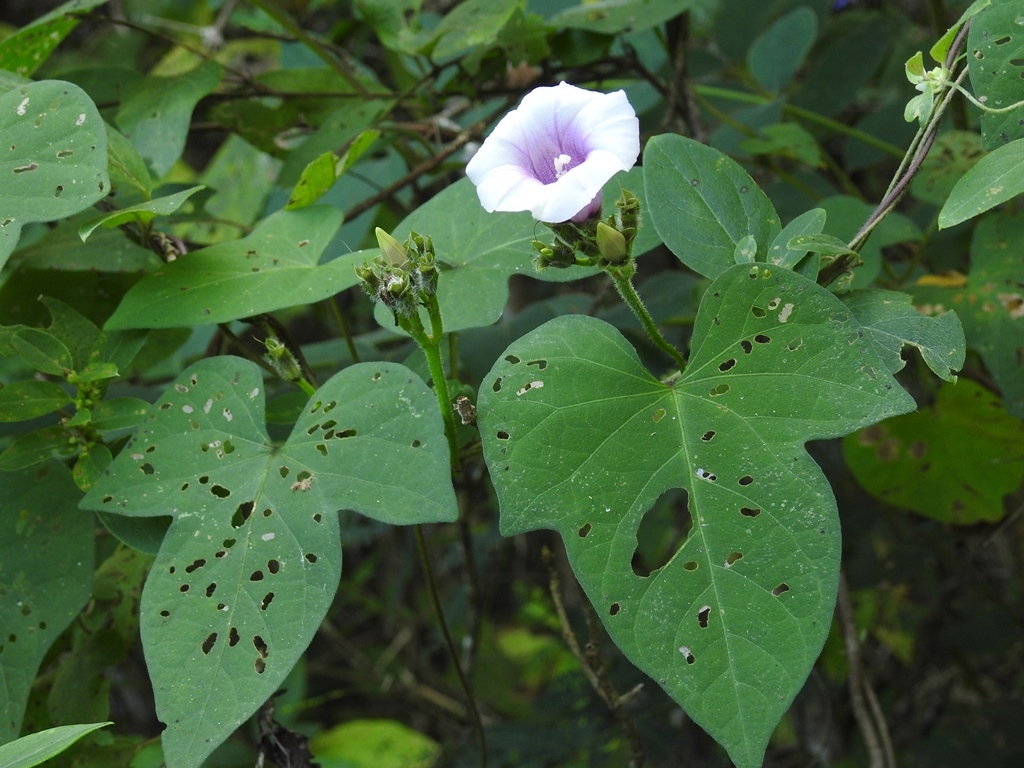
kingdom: Plantae
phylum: Tracheophyta
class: Magnoliopsida
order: Solanales
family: Convolvulaceae
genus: Ipomoea
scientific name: Ipomoea batatas
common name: Sweet-potato
